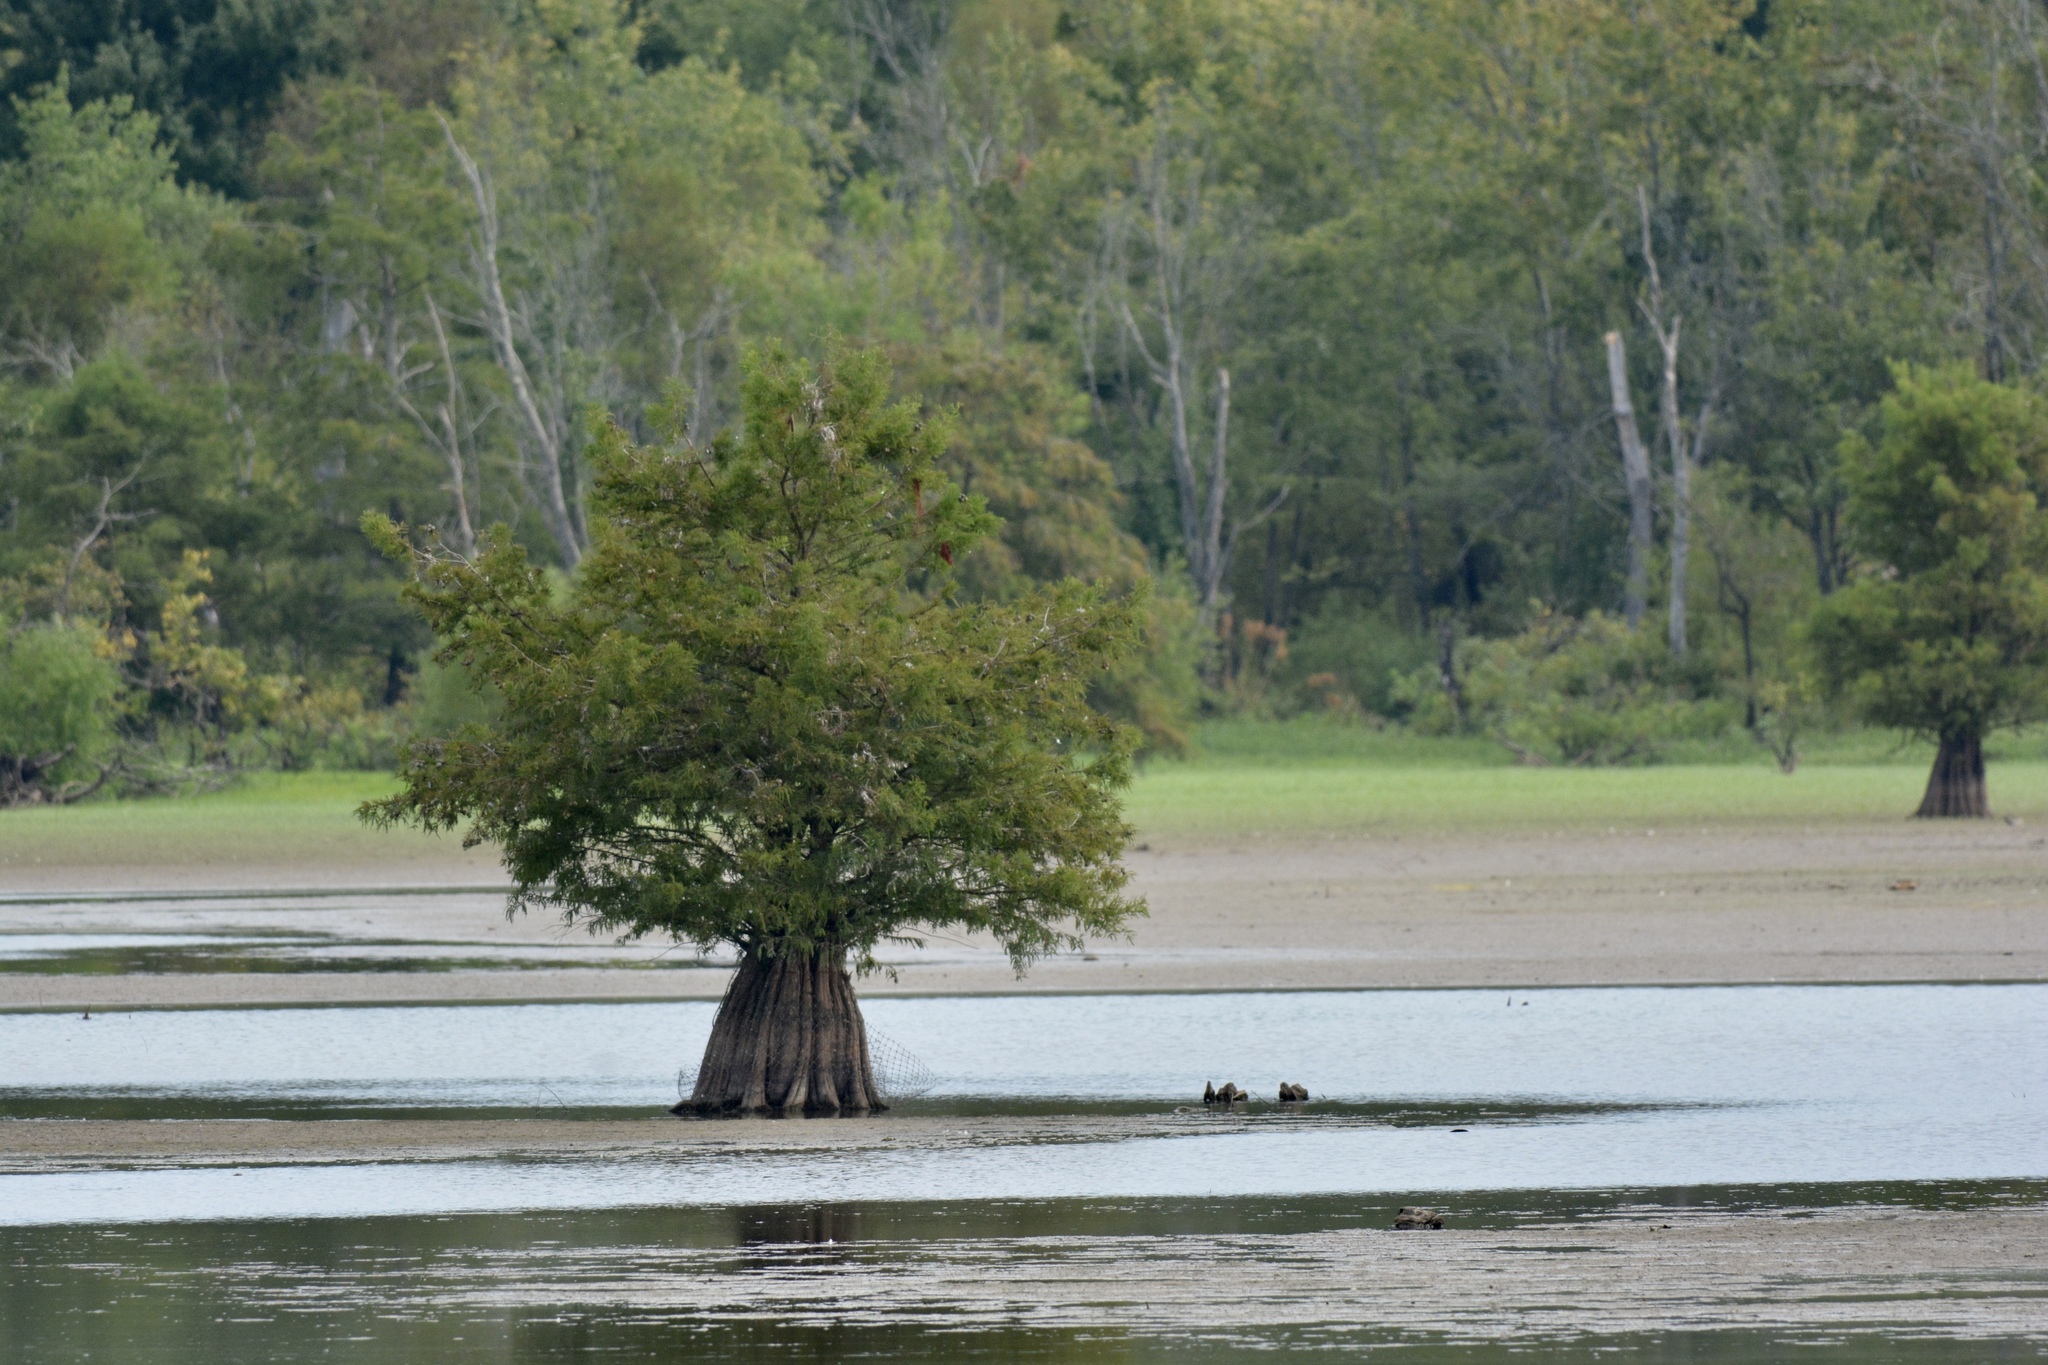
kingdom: Plantae
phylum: Tracheophyta
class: Pinopsida
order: Pinales
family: Cupressaceae
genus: Taxodium
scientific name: Taxodium distichum
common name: Bald cypress
